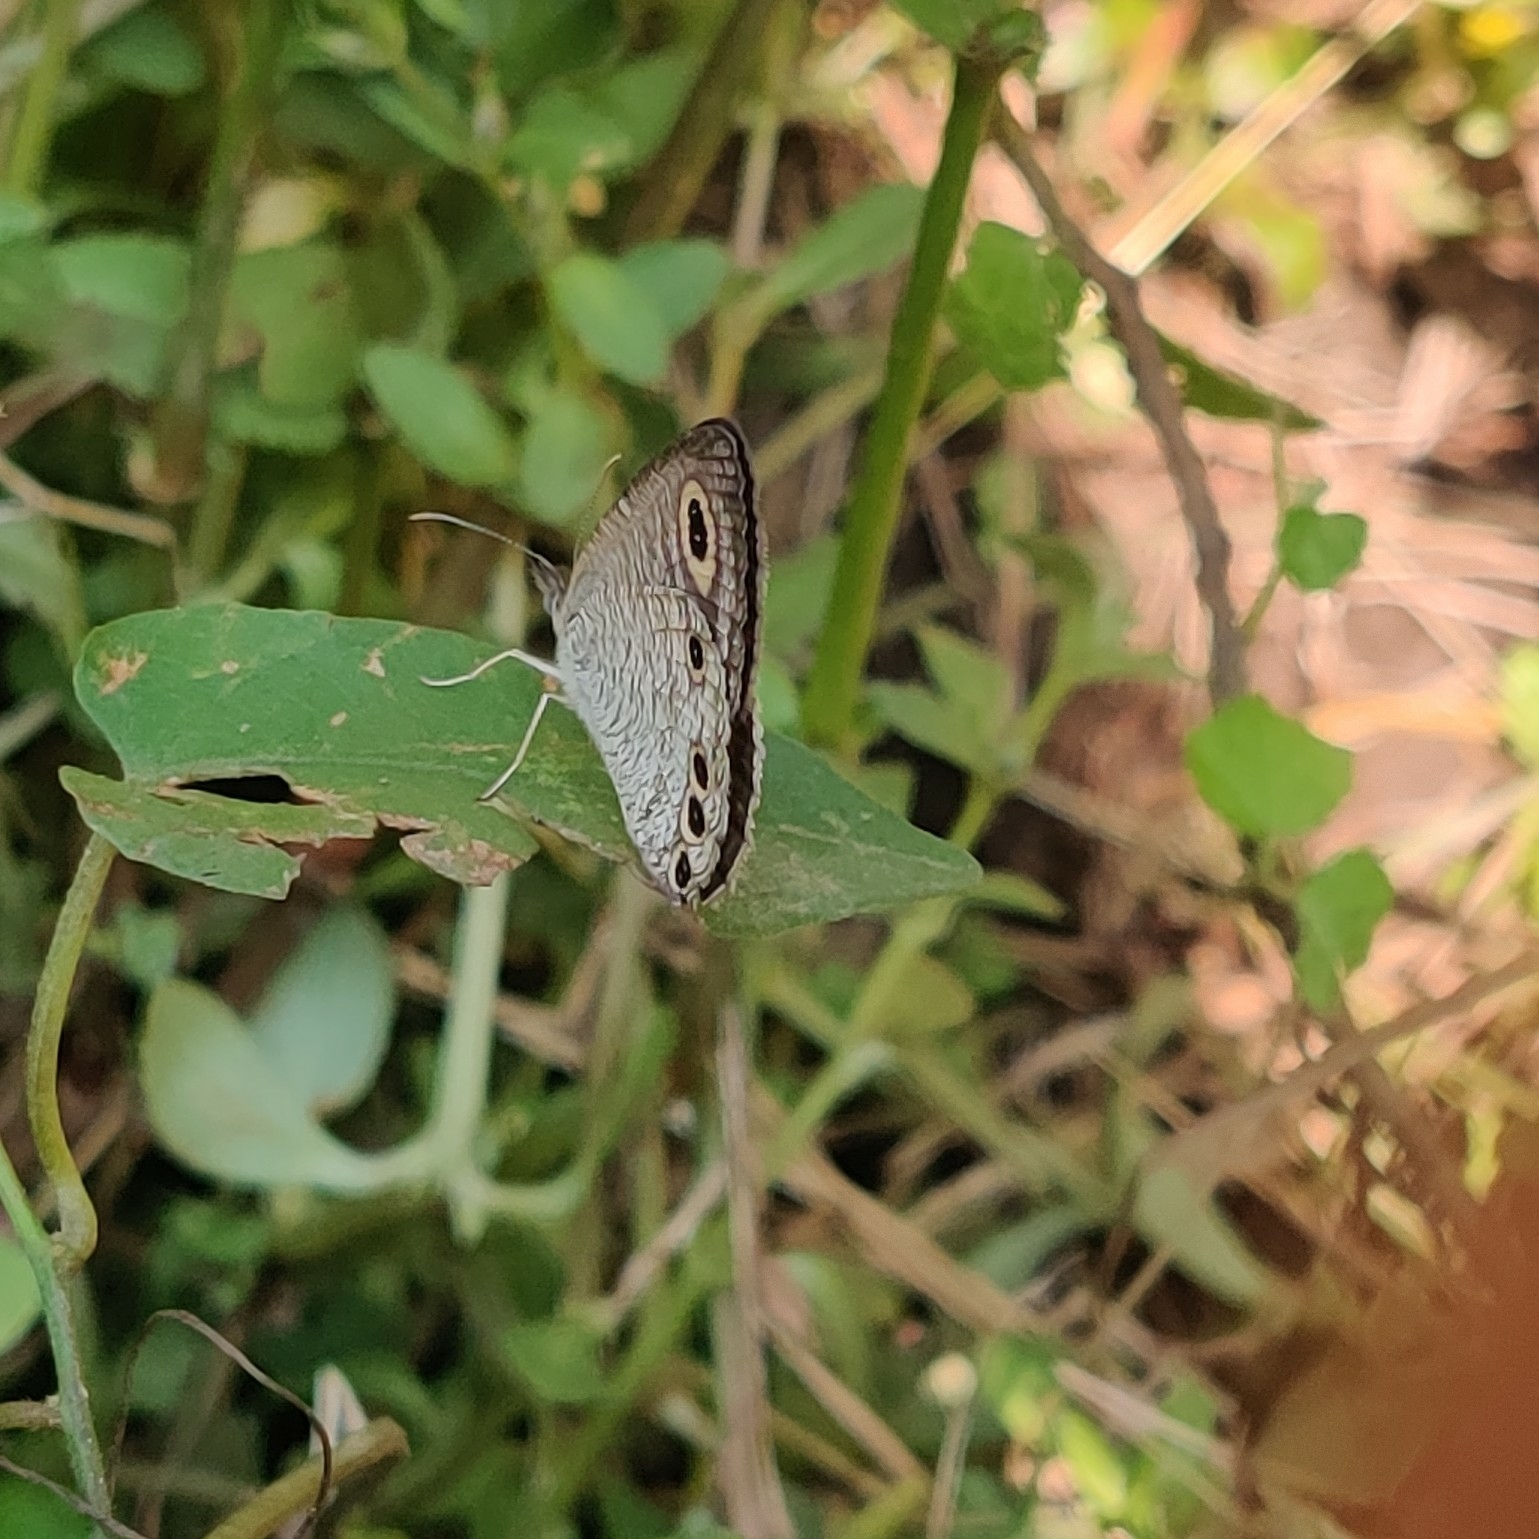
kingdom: Animalia
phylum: Arthropoda
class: Insecta
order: Lepidoptera
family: Nymphalidae
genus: Ypthima
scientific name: Ypthima huebneri
